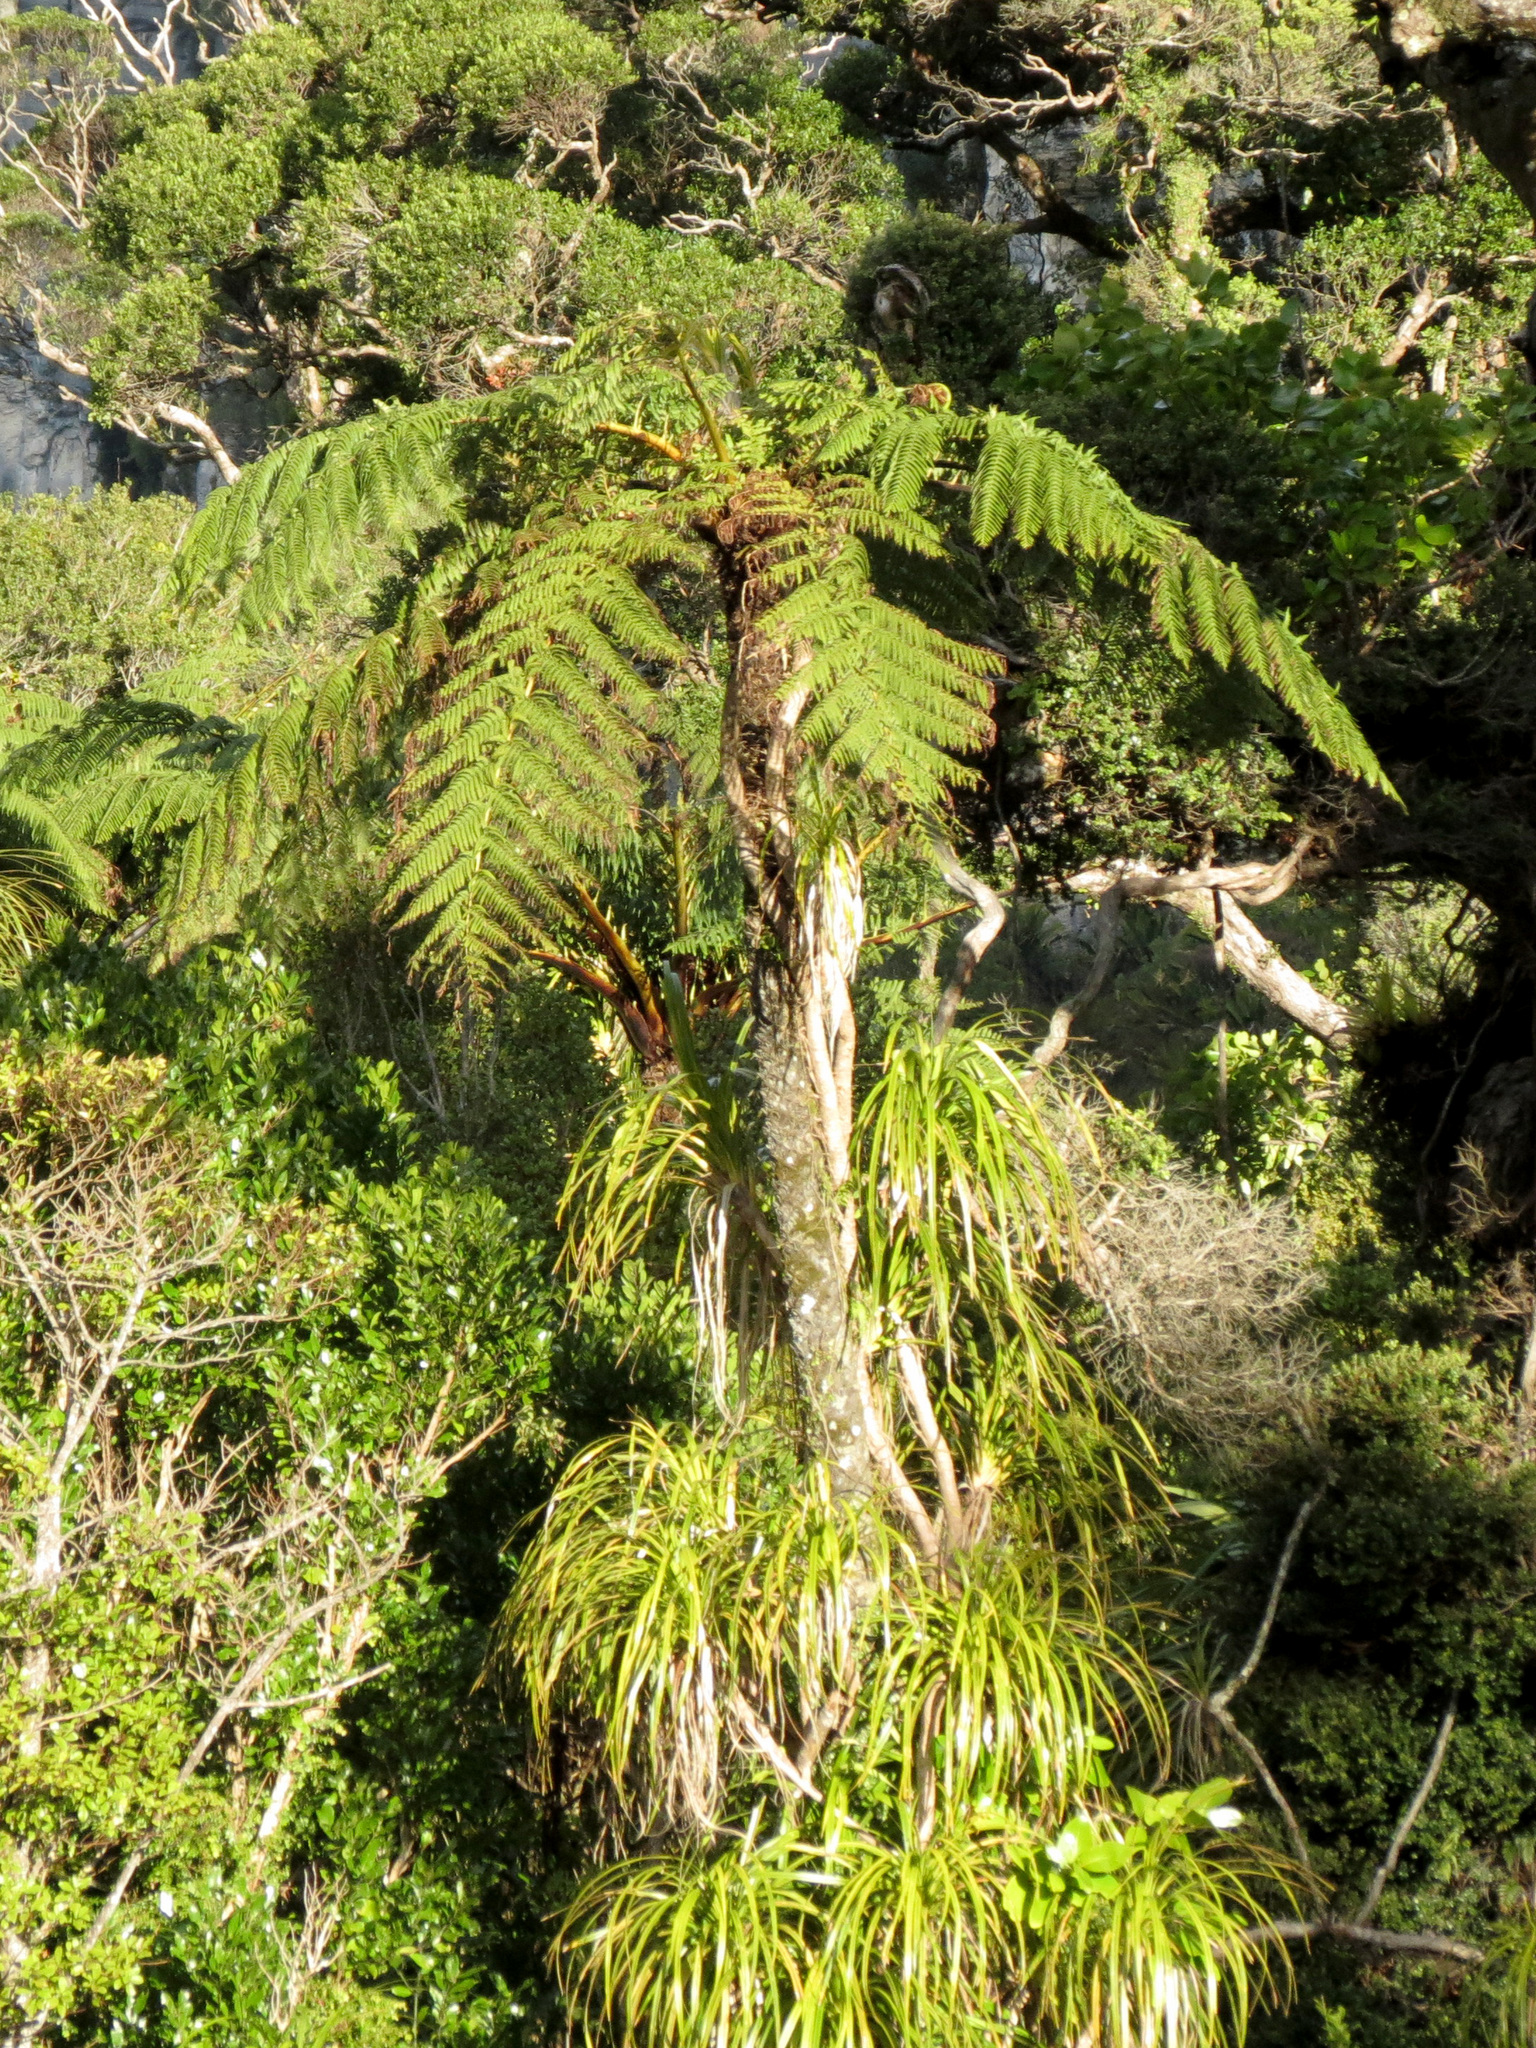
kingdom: Plantae
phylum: Tracheophyta
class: Polypodiopsida
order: Cyatheales
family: Cyatheaceae
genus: Sphaeropteris
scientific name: Sphaeropteris medullaris
